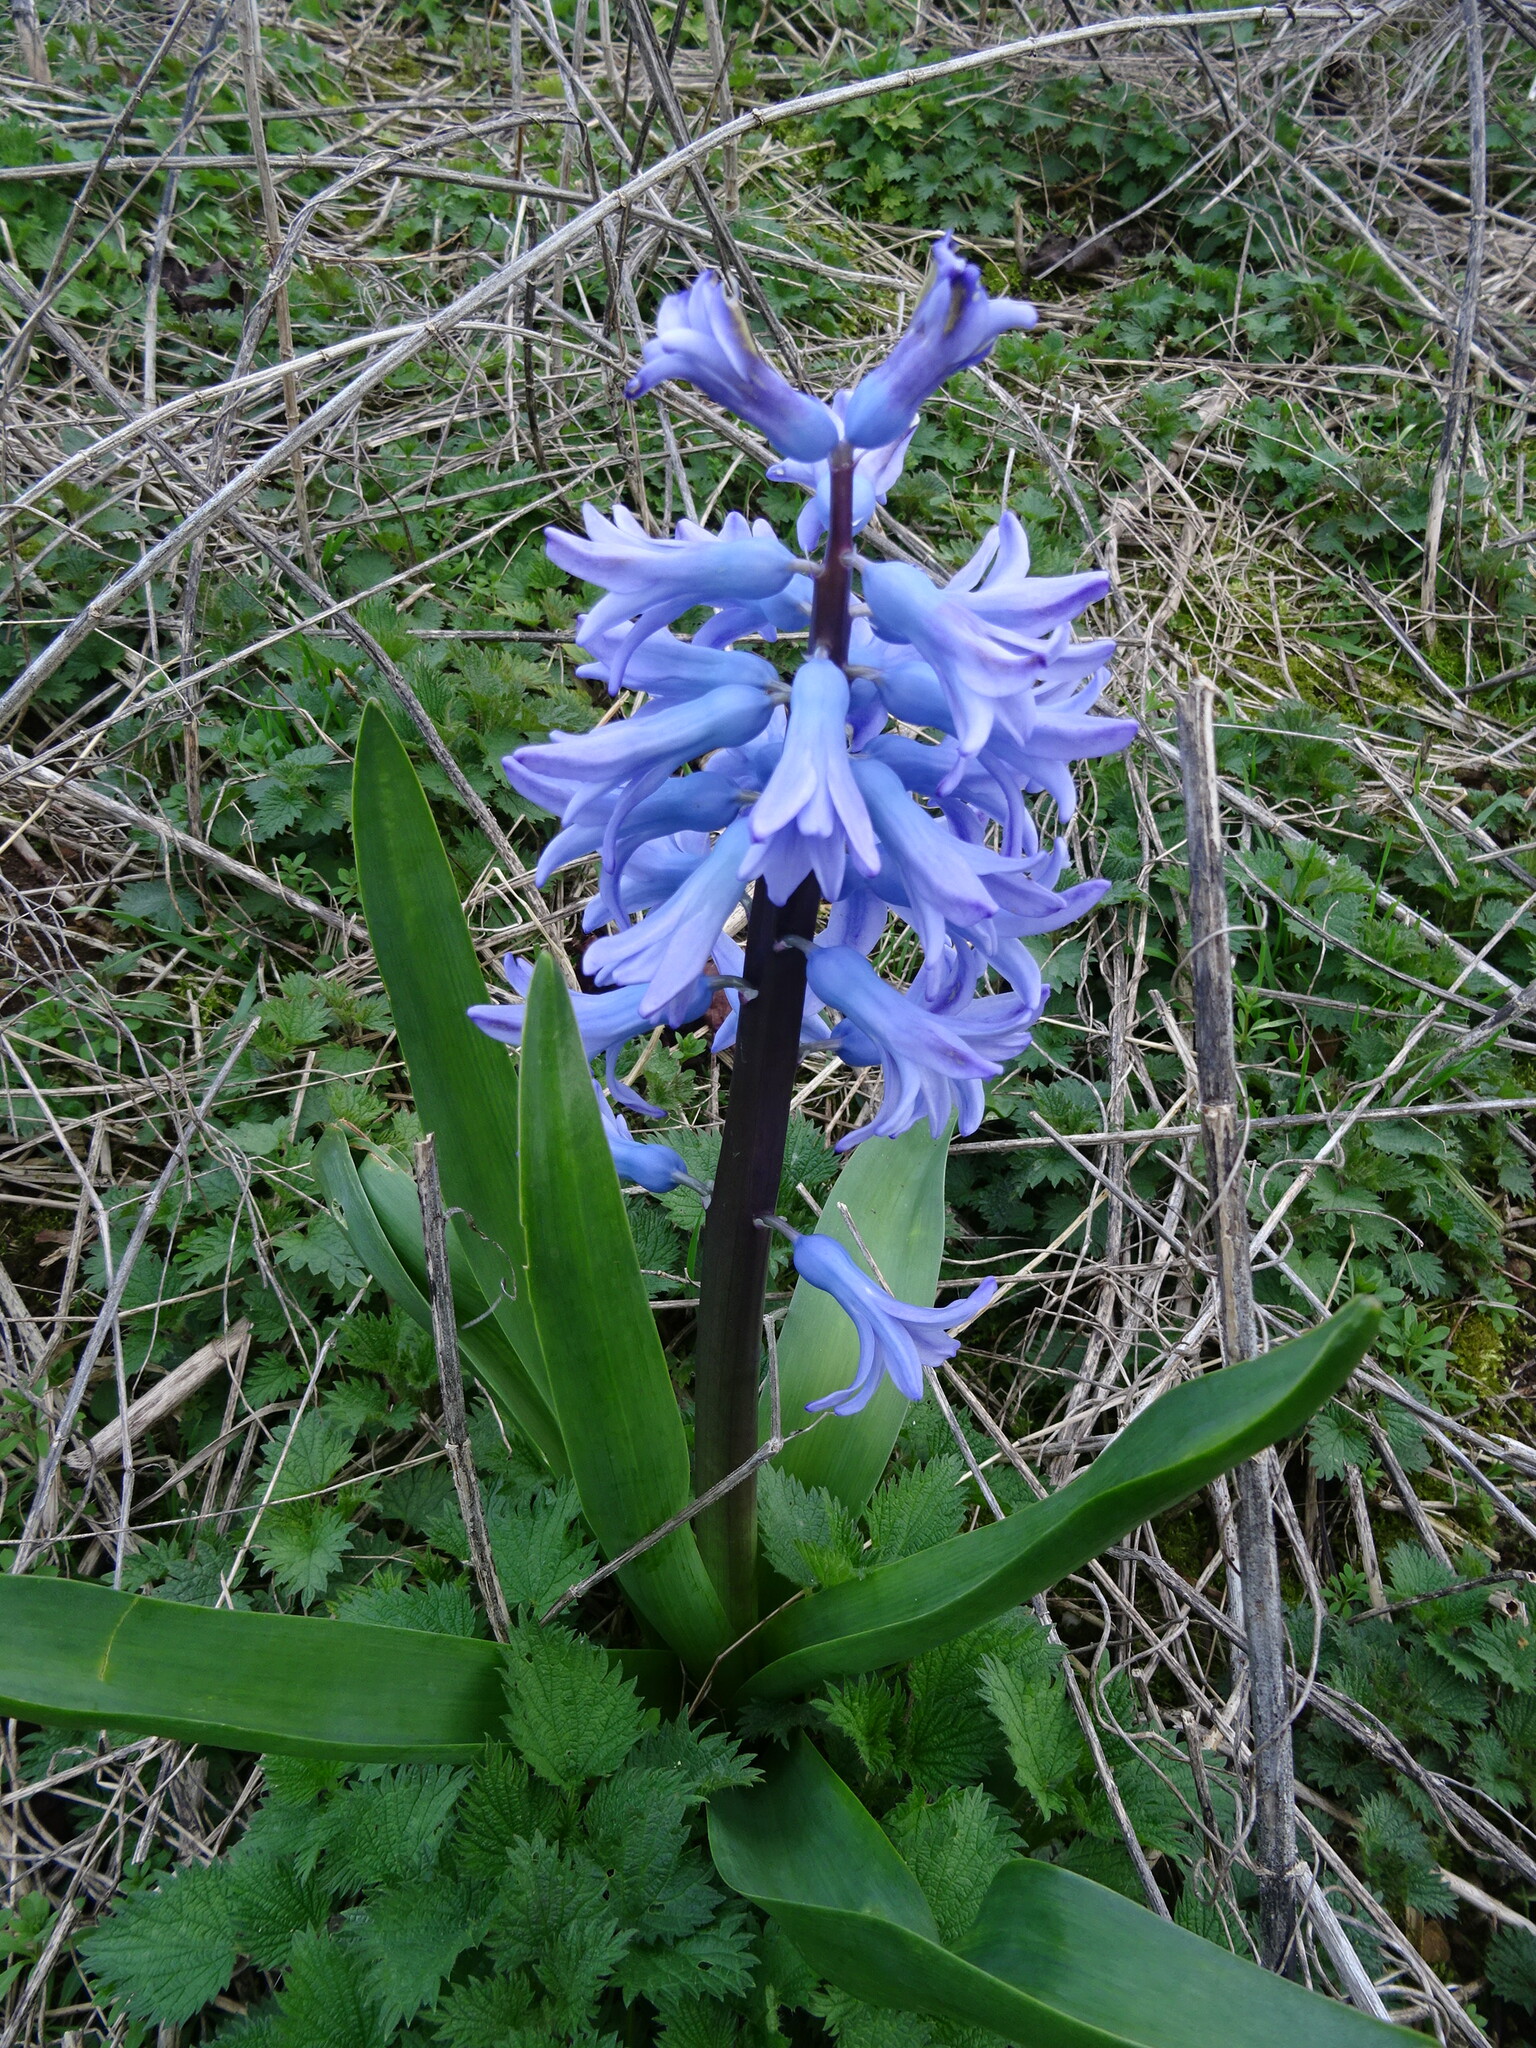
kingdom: Plantae
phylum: Tracheophyta
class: Liliopsida
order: Asparagales
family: Asparagaceae
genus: Hyacinthus
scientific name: Hyacinthus orientalis
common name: Hyacinth
